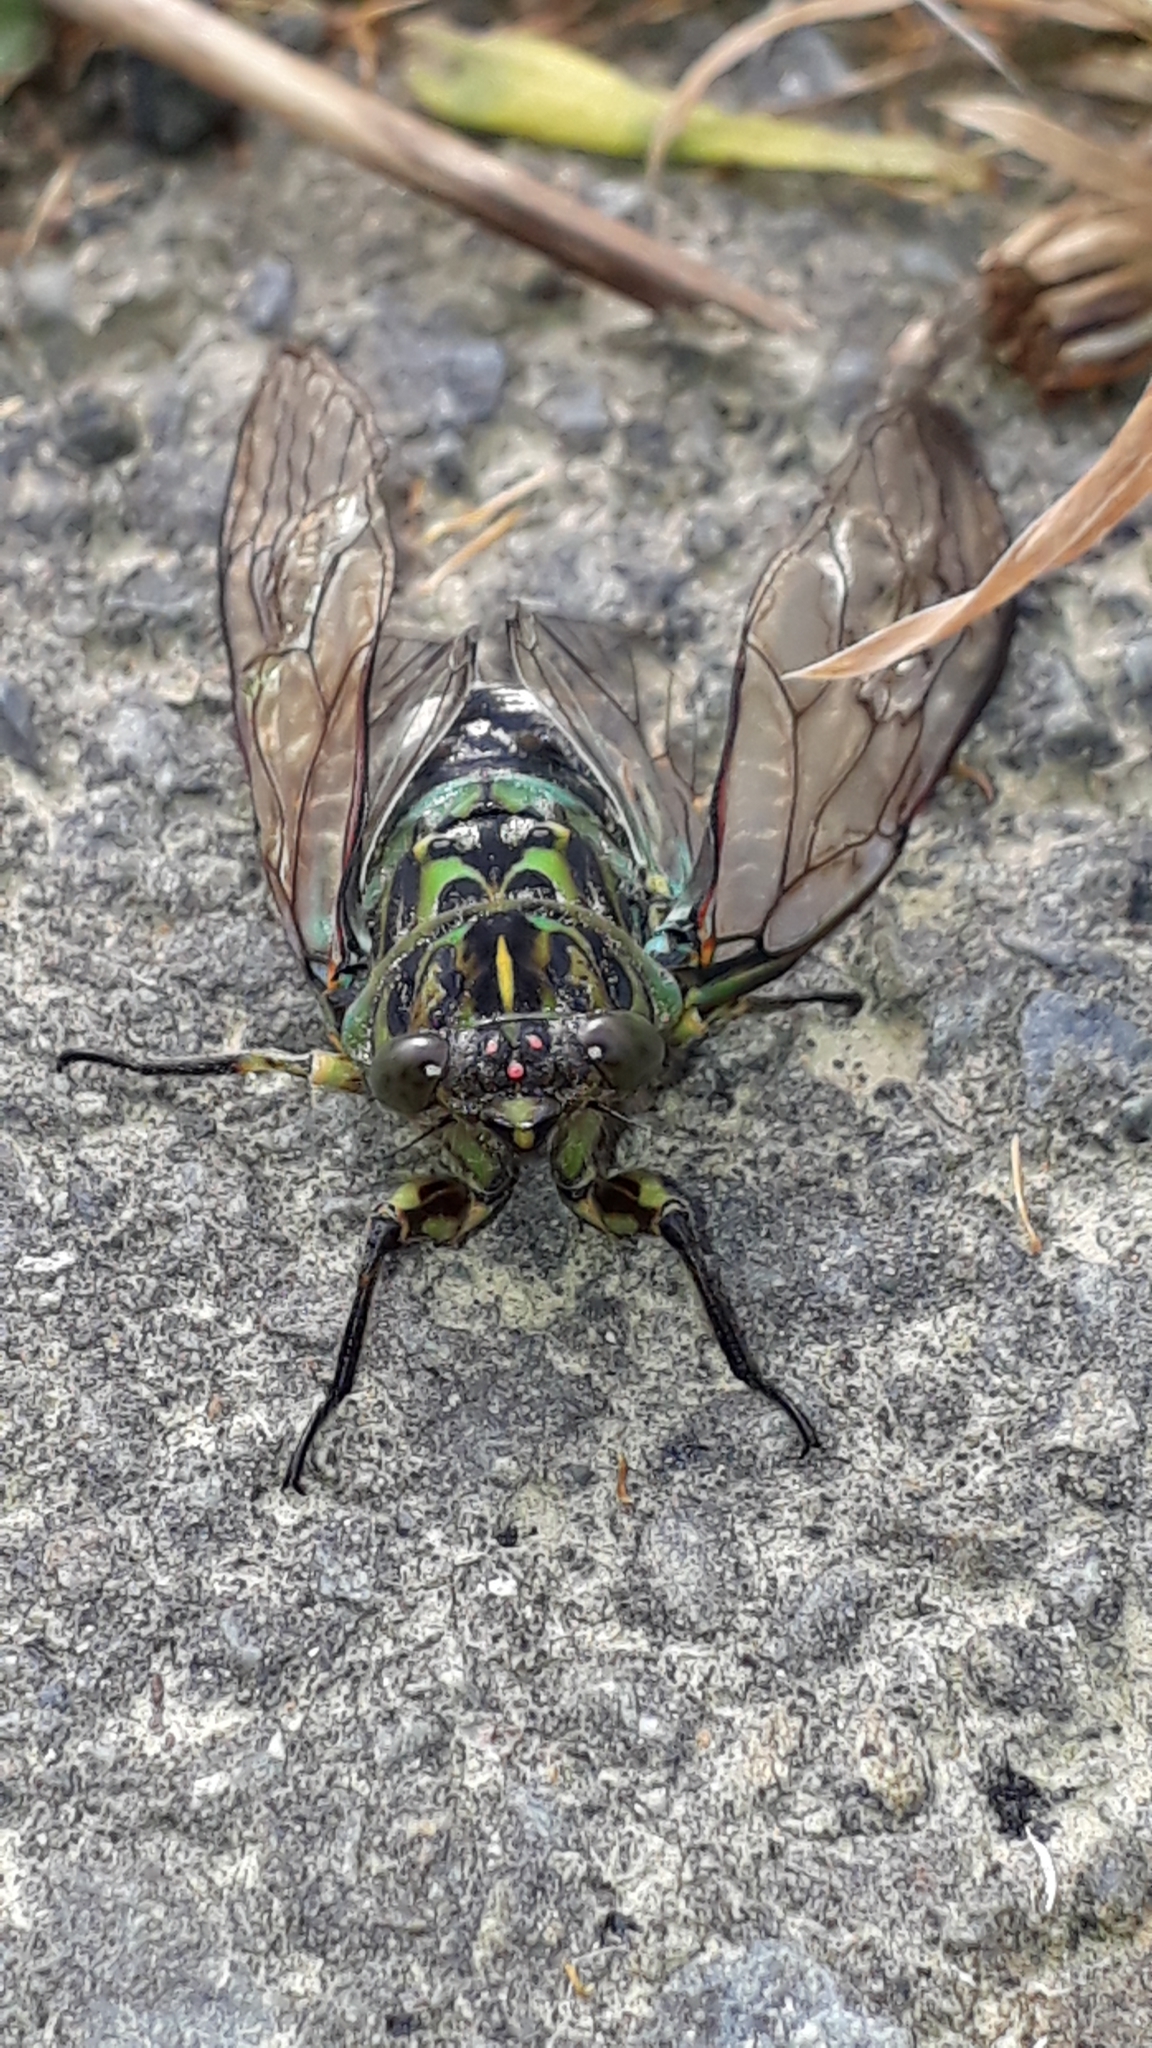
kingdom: Animalia
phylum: Arthropoda
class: Insecta
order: Hemiptera
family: Cicadidae
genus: Amphipsalta
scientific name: Amphipsalta zelandica
